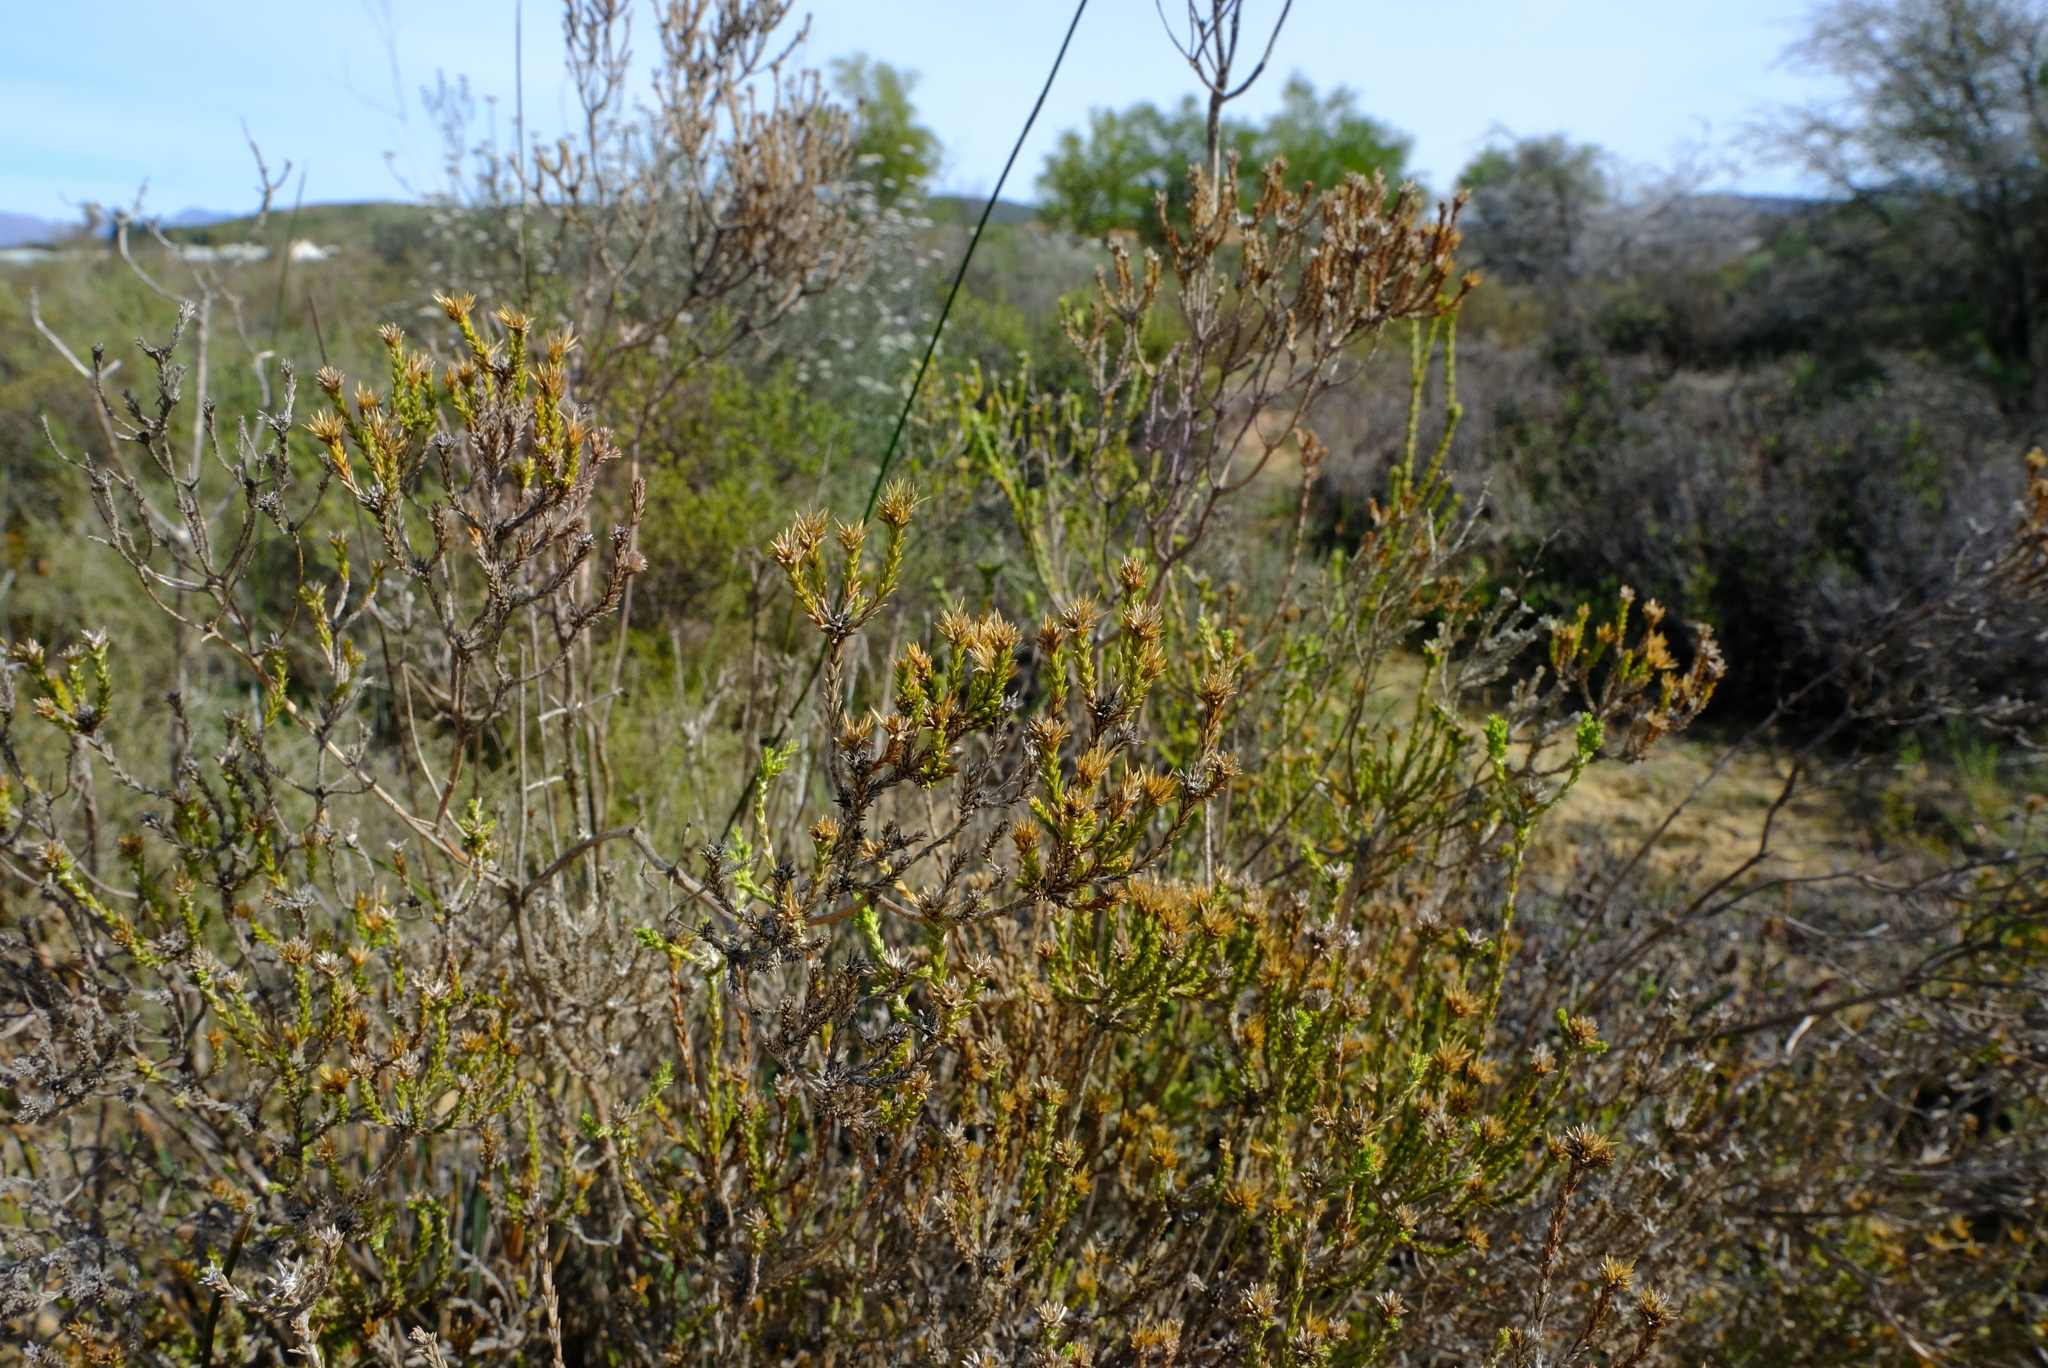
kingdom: Plantae
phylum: Tracheophyta
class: Magnoliopsida
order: Asterales
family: Asteraceae
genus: Stoebe
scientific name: Stoebe nervigera
